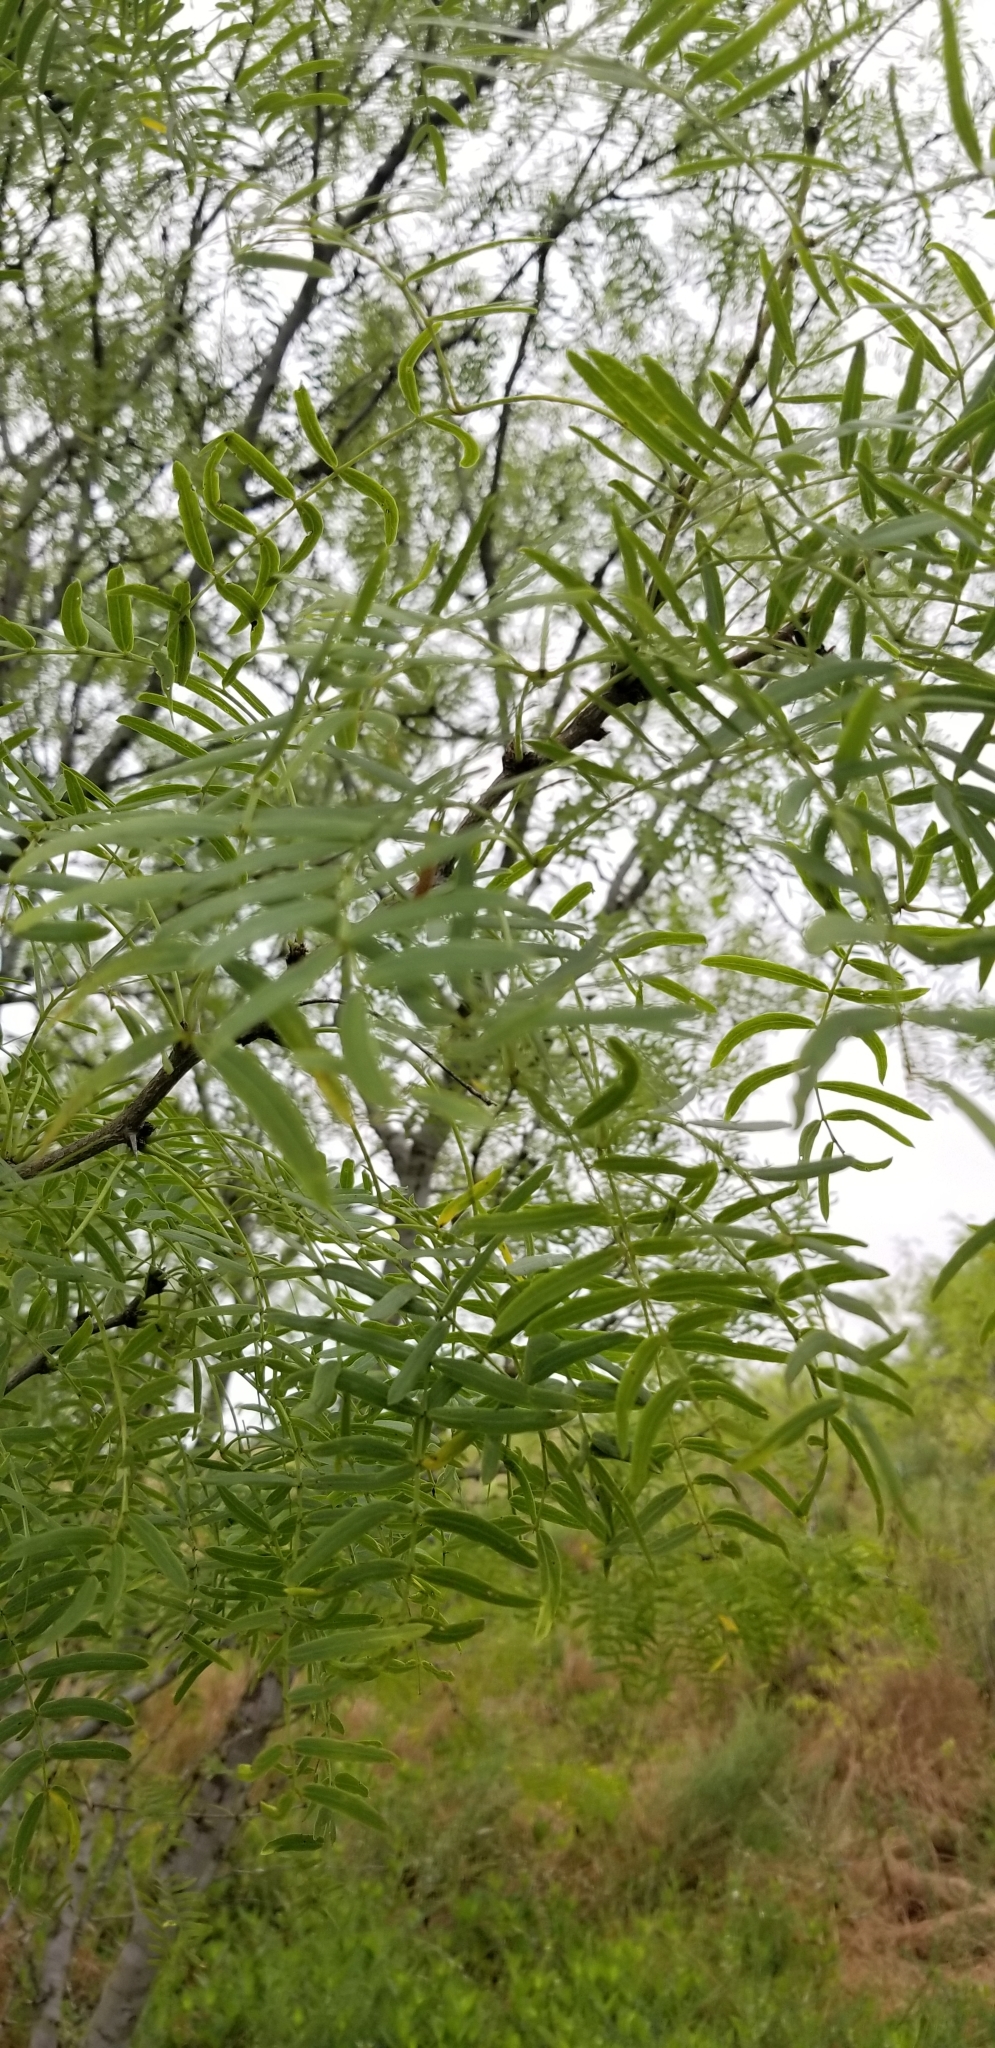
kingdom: Plantae
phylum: Tracheophyta
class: Magnoliopsida
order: Fabales
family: Fabaceae
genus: Prosopis
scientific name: Prosopis glandulosa
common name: Honey mesquite
